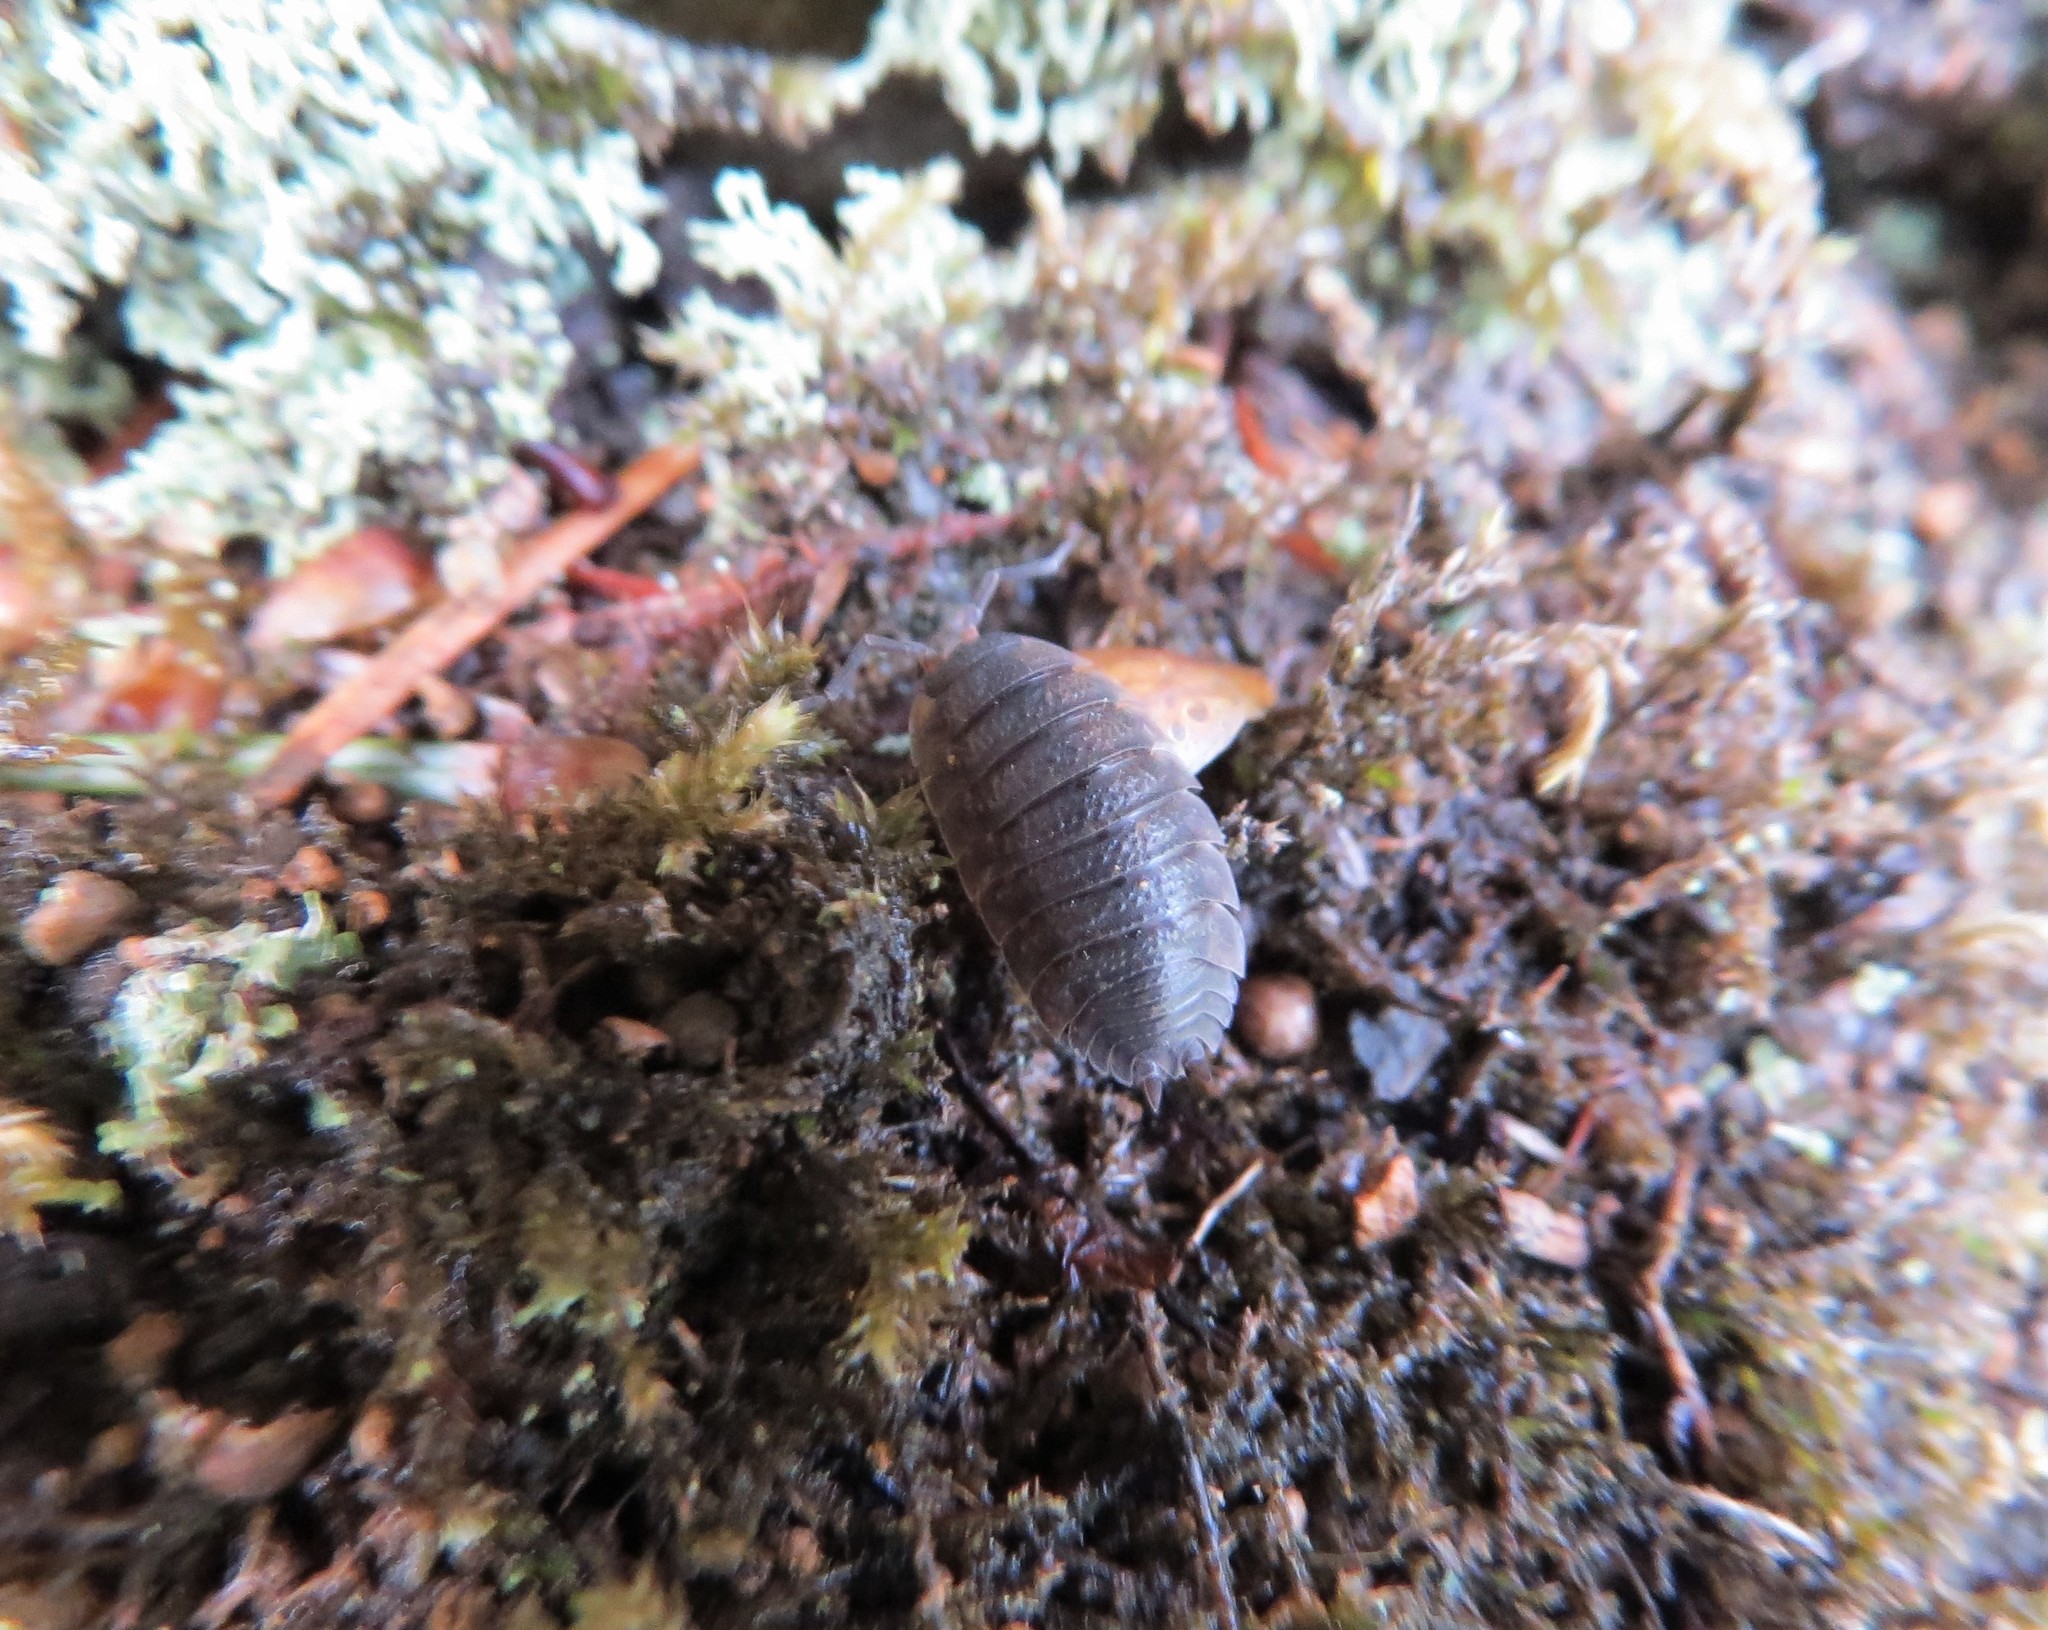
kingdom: Animalia
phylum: Arthropoda
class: Malacostraca
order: Isopoda
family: Porcellionidae
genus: Porcellio
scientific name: Porcellio scaber
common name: Common rough woodlouse
